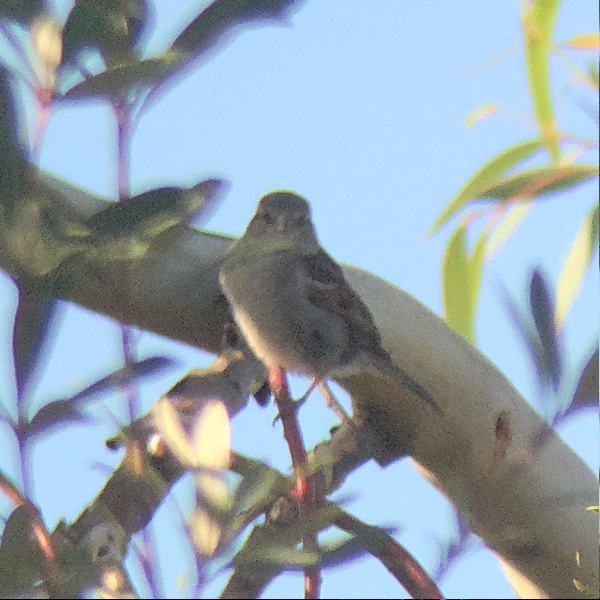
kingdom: Animalia
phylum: Chordata
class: Aves
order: Passeriformes
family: Passeridae
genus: Passer
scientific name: Passer domesticus
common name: House sparrow
